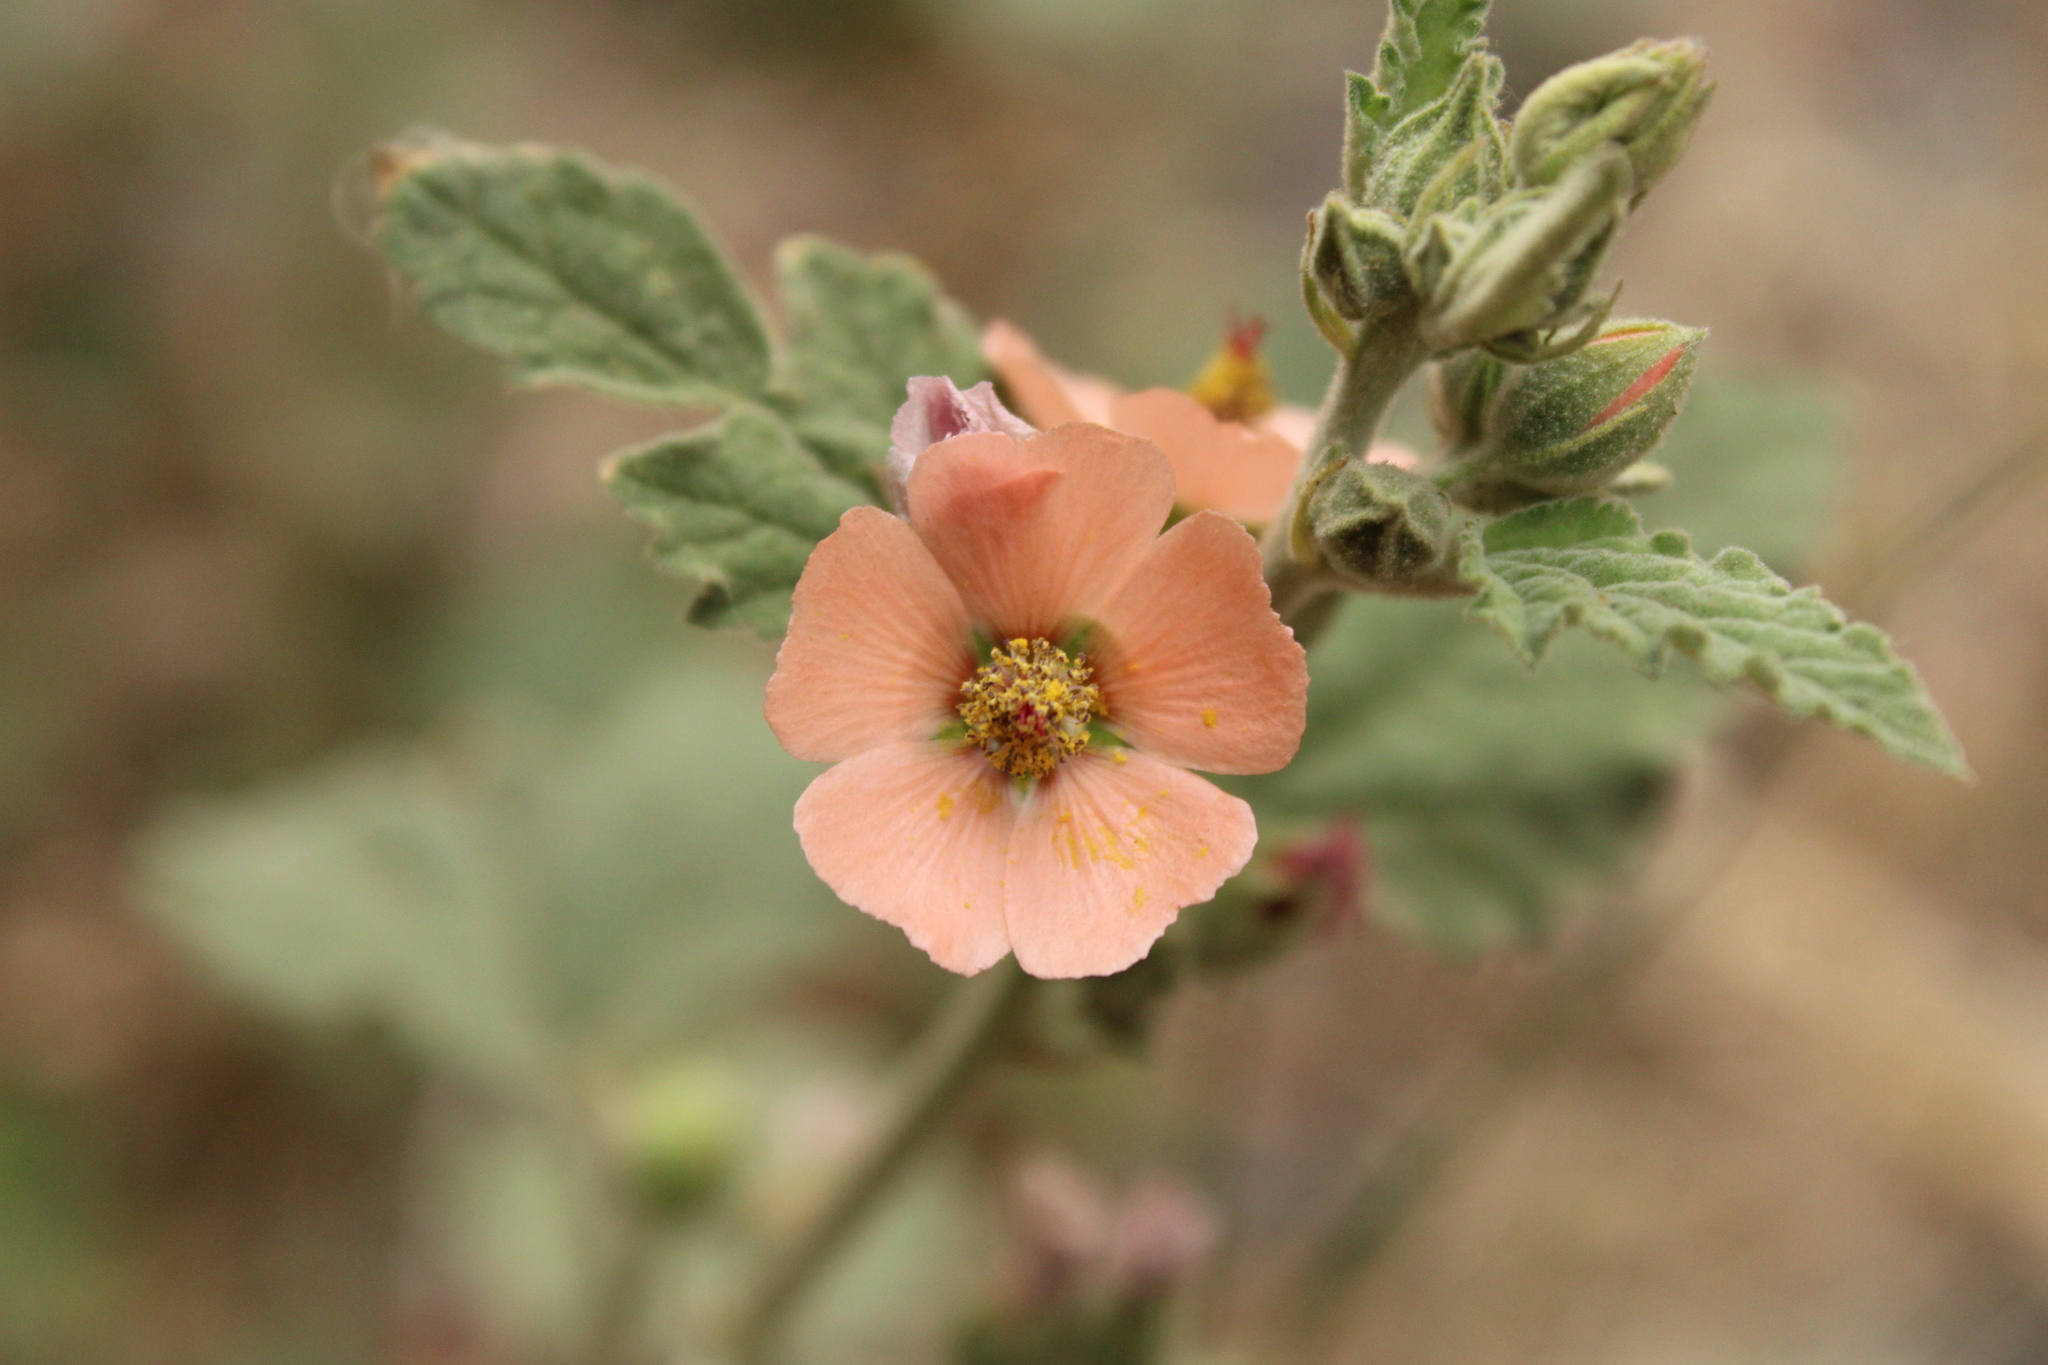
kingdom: Plantae
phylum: Tracheophyta
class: Magnoliopsida
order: Malvales
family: Malvaceae
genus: Sphaeralcea
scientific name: Sphaeralcea bonariensis
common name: Latin globemallow
